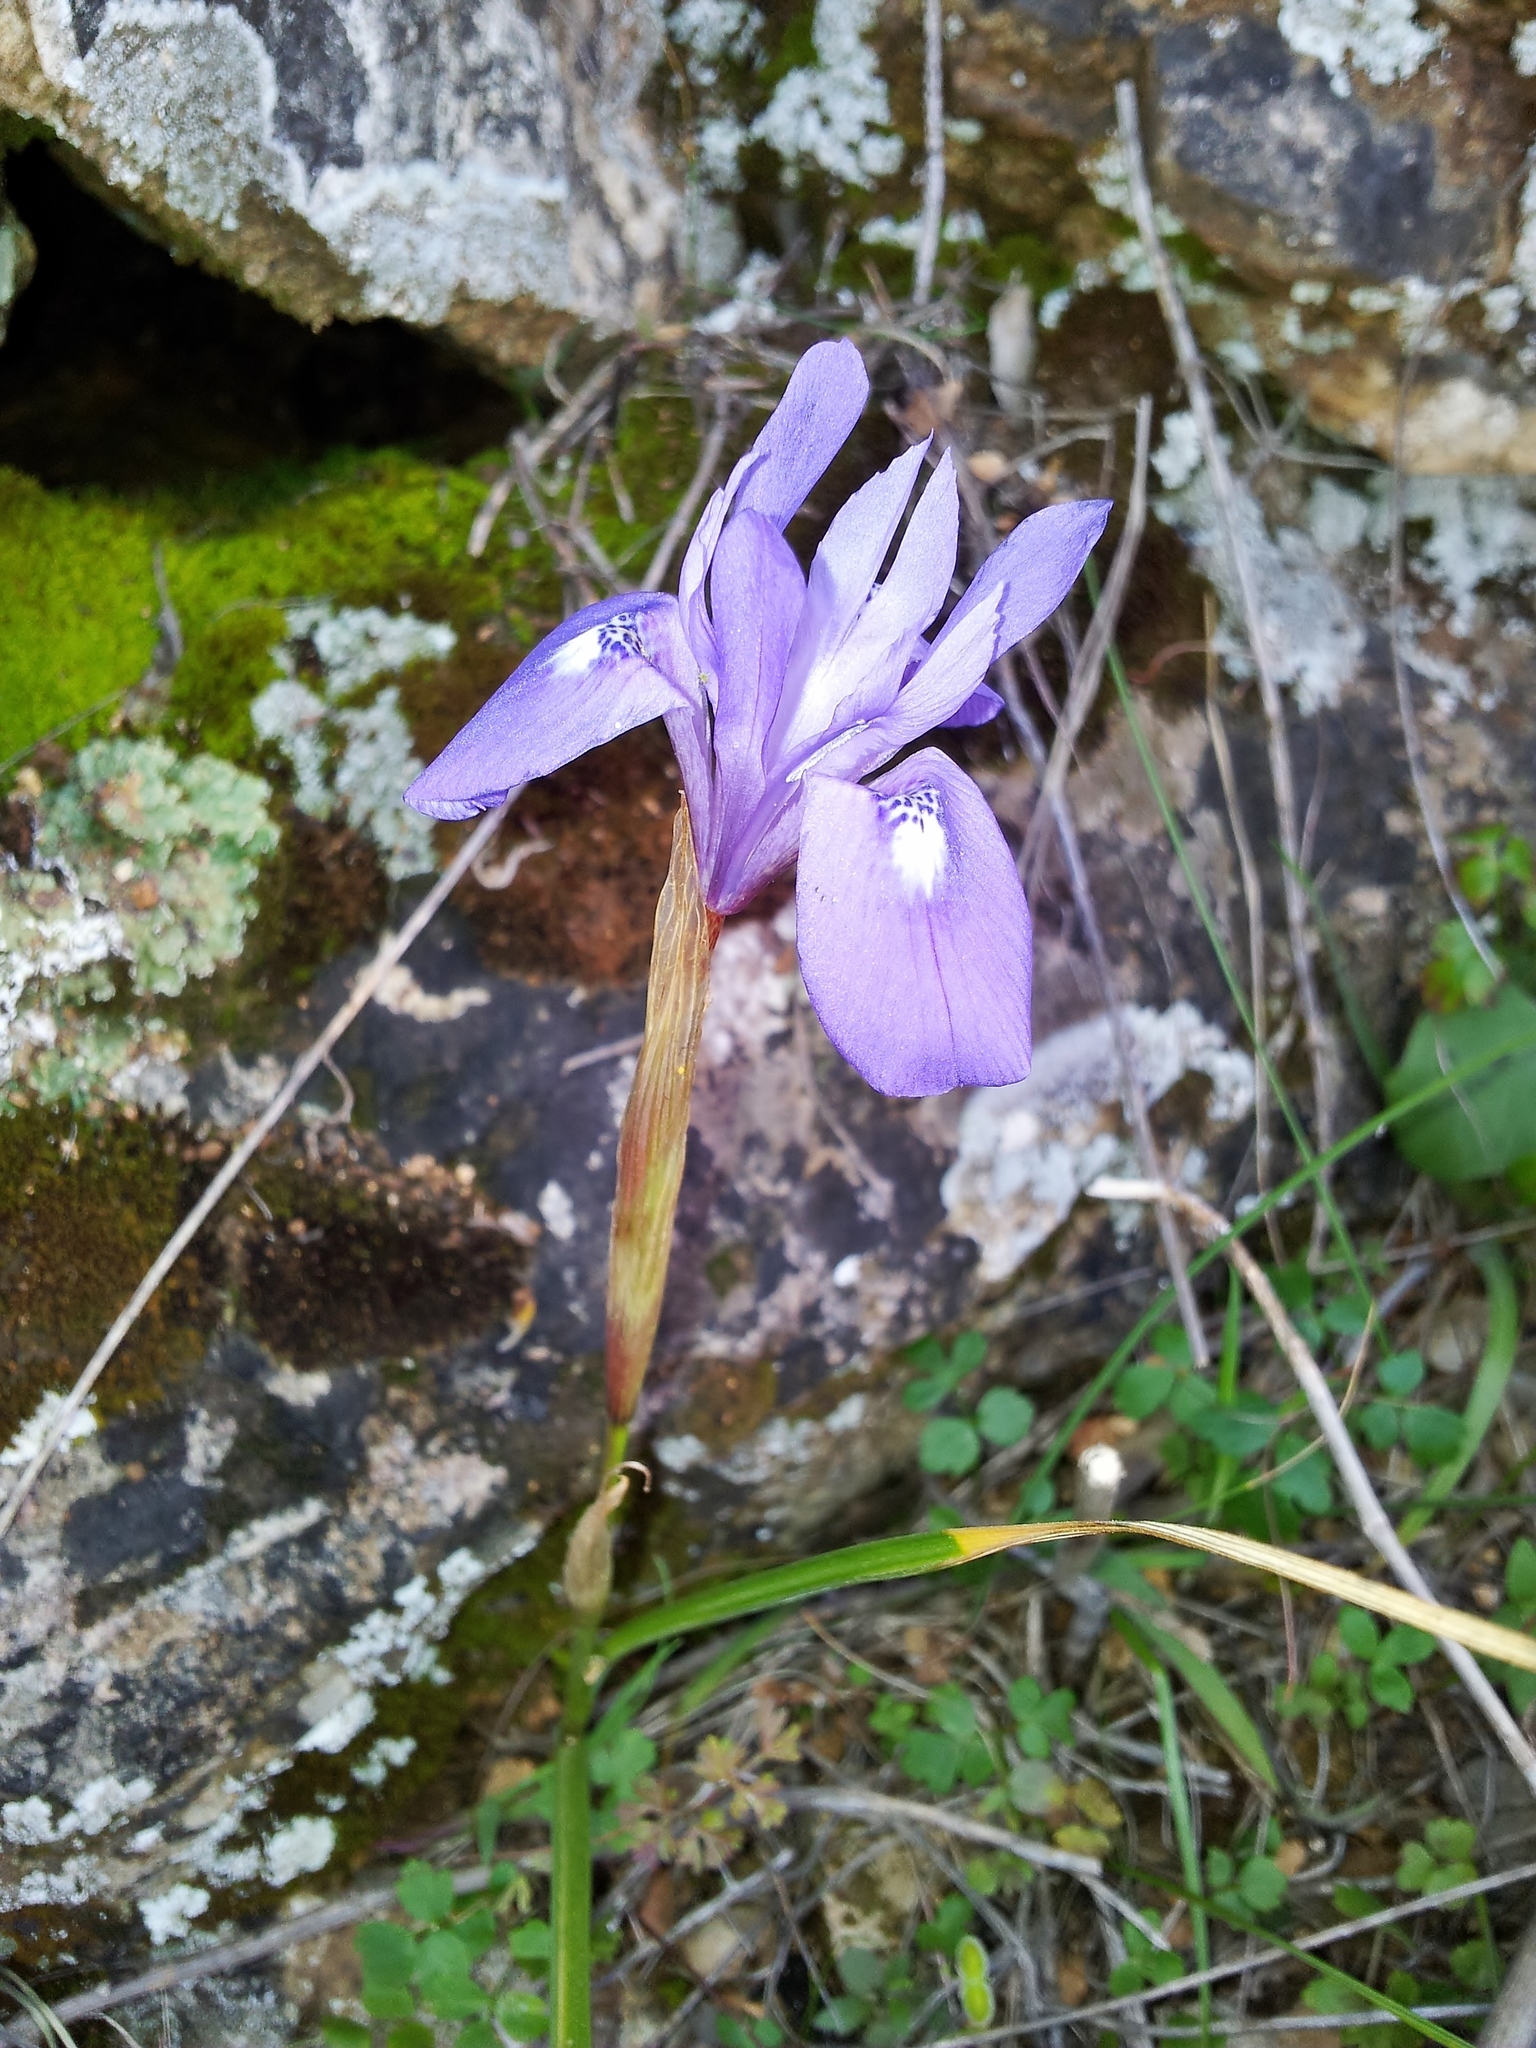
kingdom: Plantae
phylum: Tracheophyta
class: Liliopsida
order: Asparagales
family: Iridaceae
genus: Moraea
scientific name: Moraea sisyrinchium
